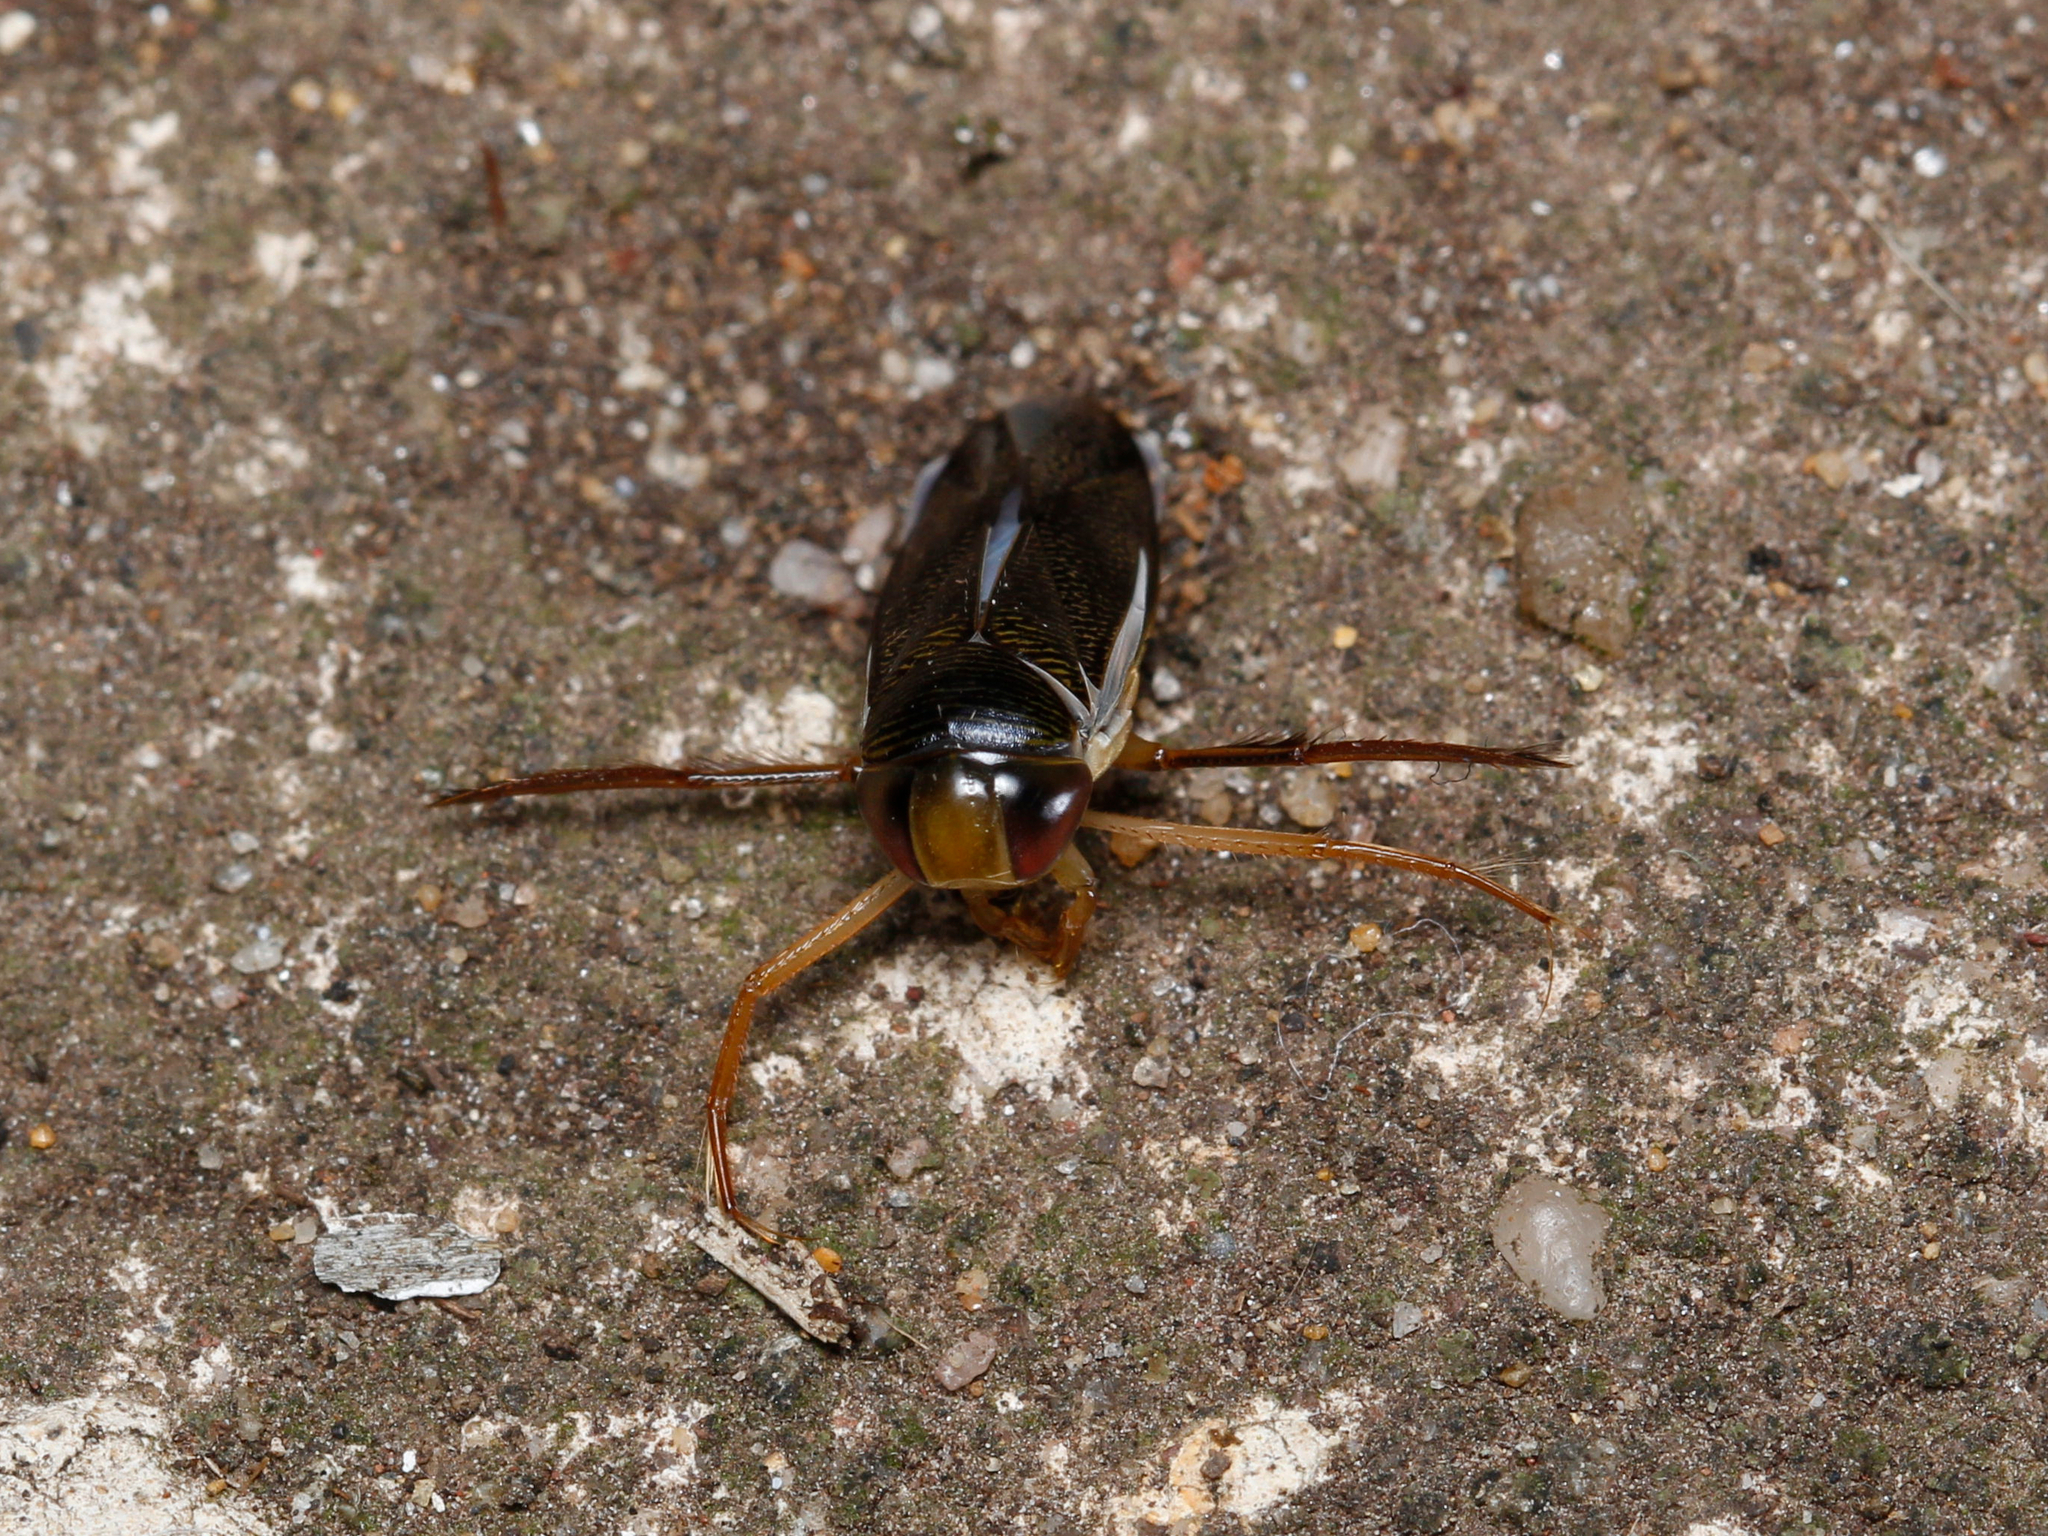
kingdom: Animalia
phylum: Arthropoda
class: Insecta
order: Hemiptera
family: Corixidae
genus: Hesperocorixa
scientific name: Hesperocorixa
